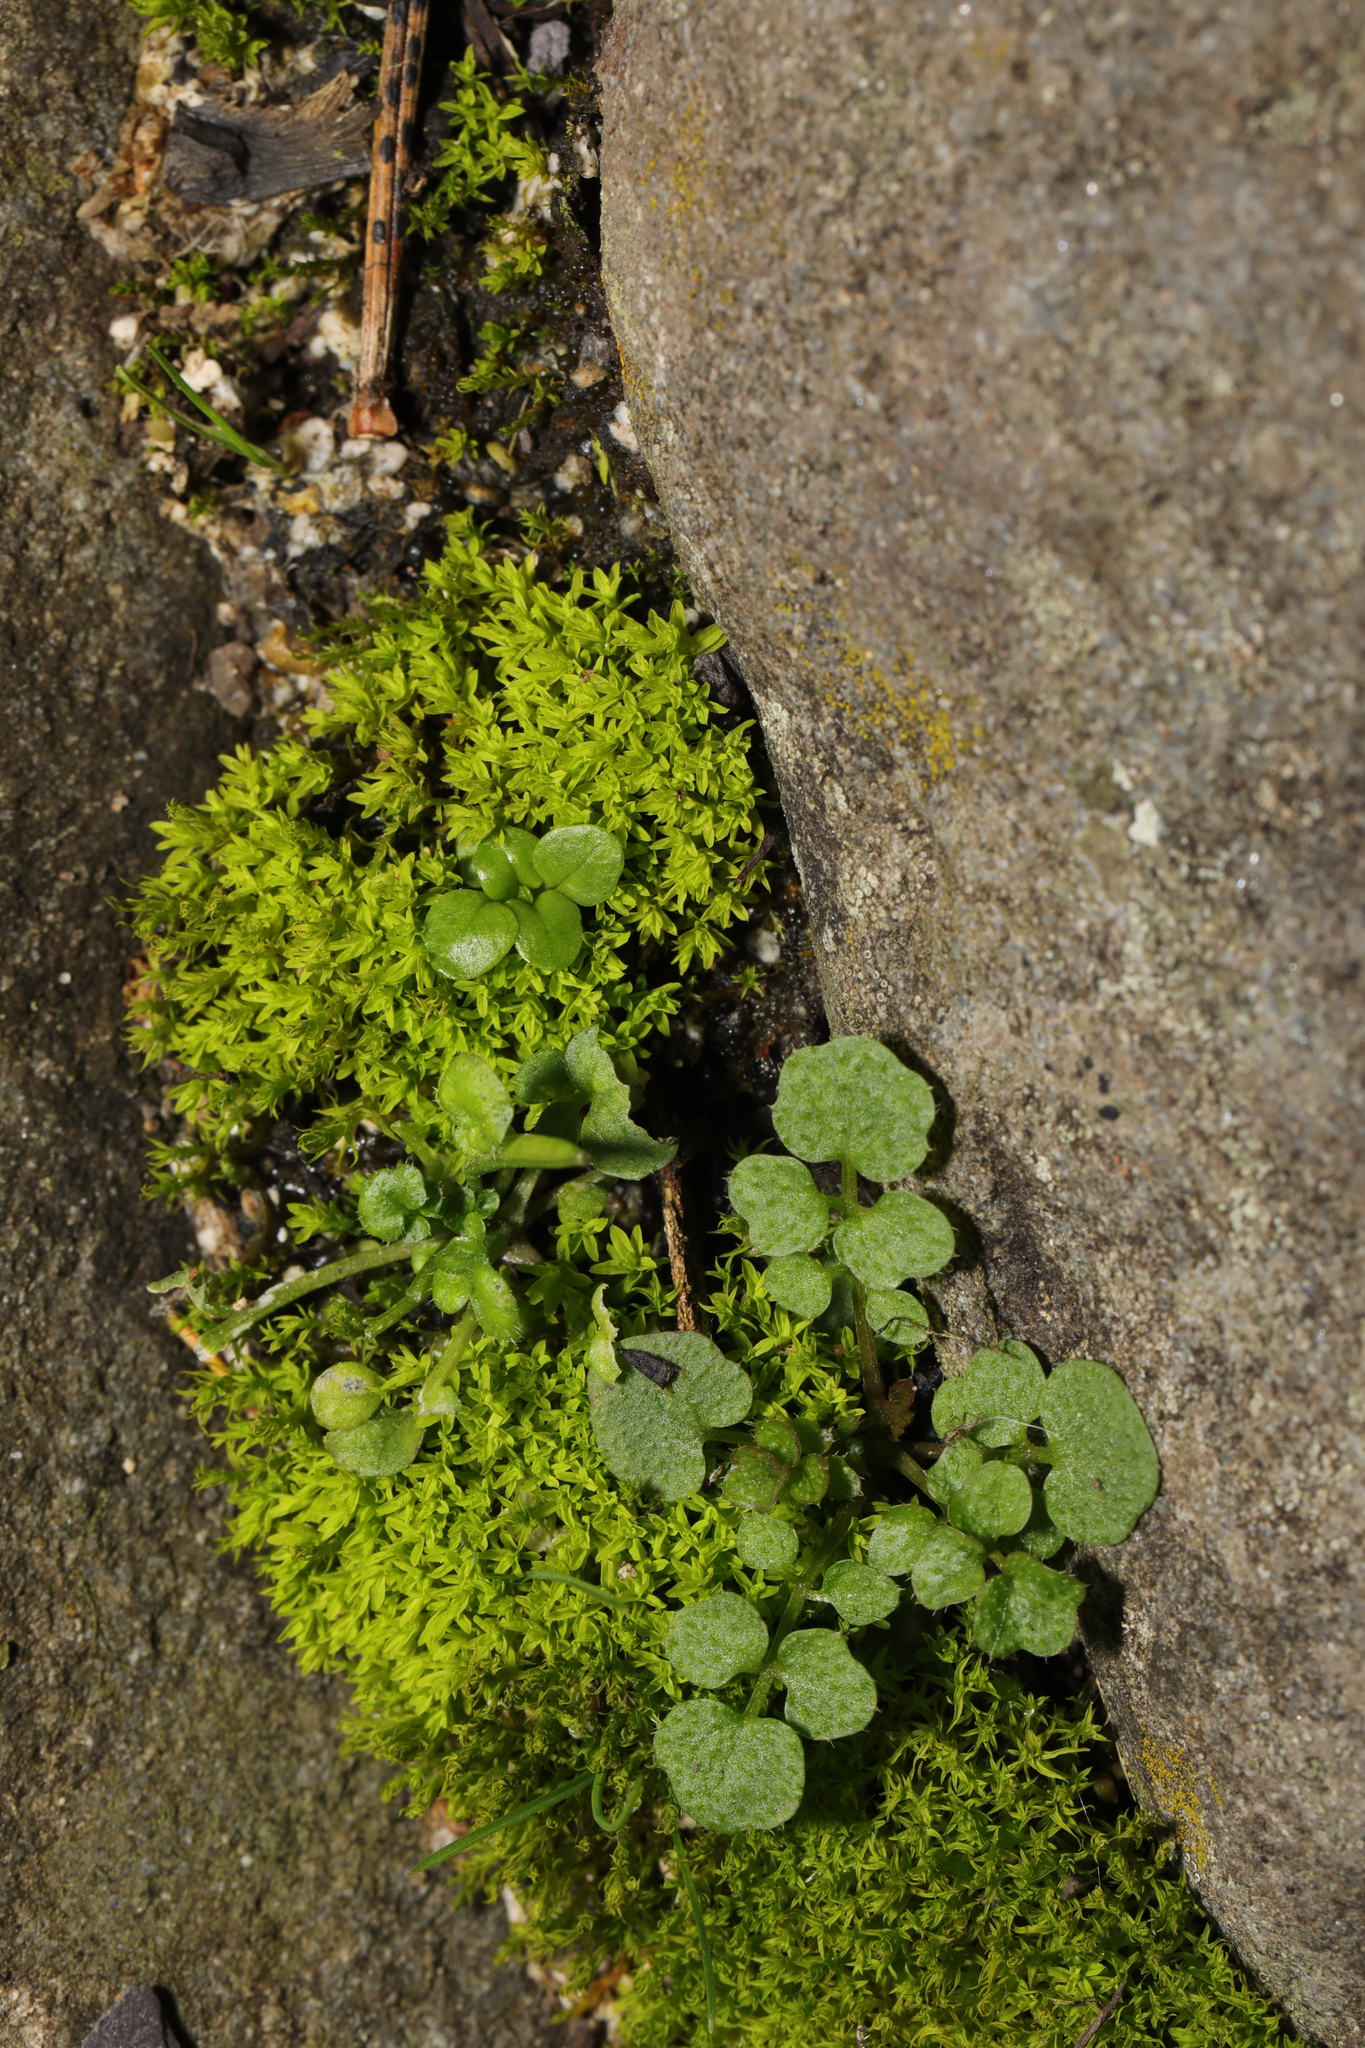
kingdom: Plantae
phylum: Bryophyta
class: Bryopsida
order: Pottiales
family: Pottiaceae
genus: Barbula
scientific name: Barbula unguiculata
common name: Prickly beard moss
